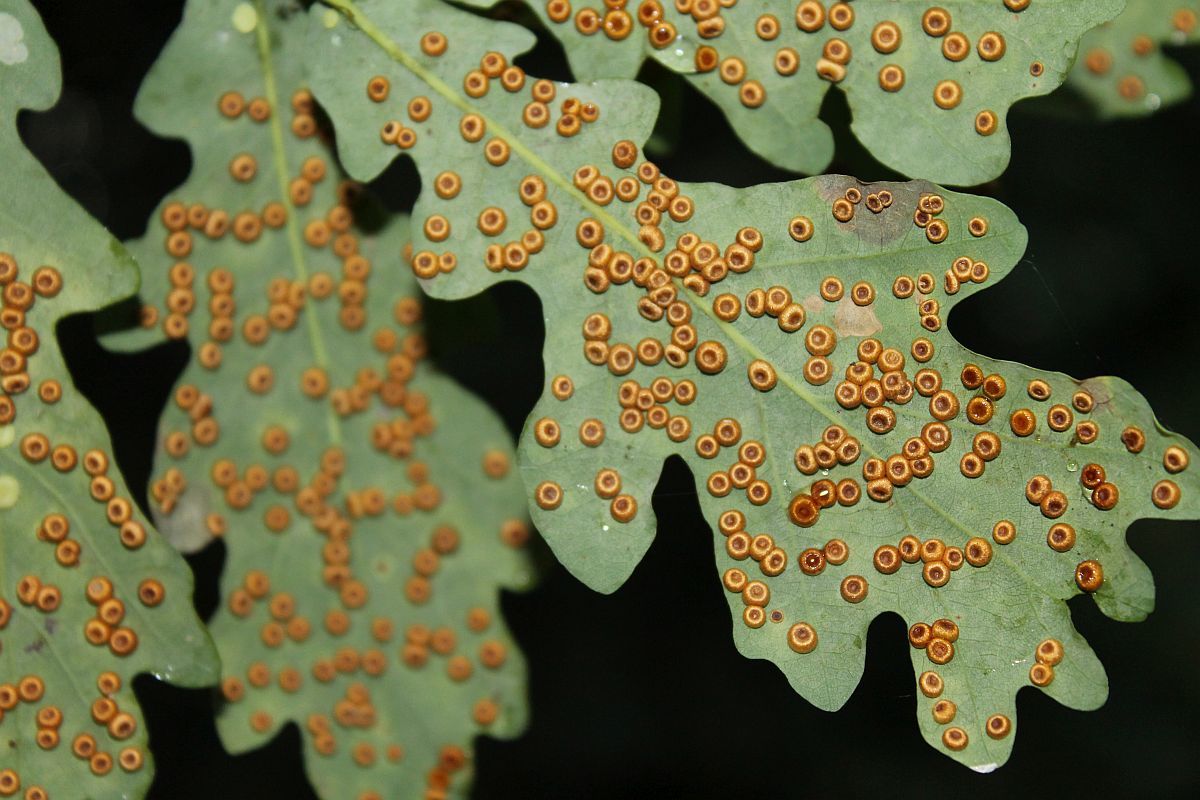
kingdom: Animalia
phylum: Arthropoda
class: Insecta
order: Hymenoptera
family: Cynipidae
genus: Neuroterus
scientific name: Neuroterus numismalis
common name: Silk-button spangle gall
